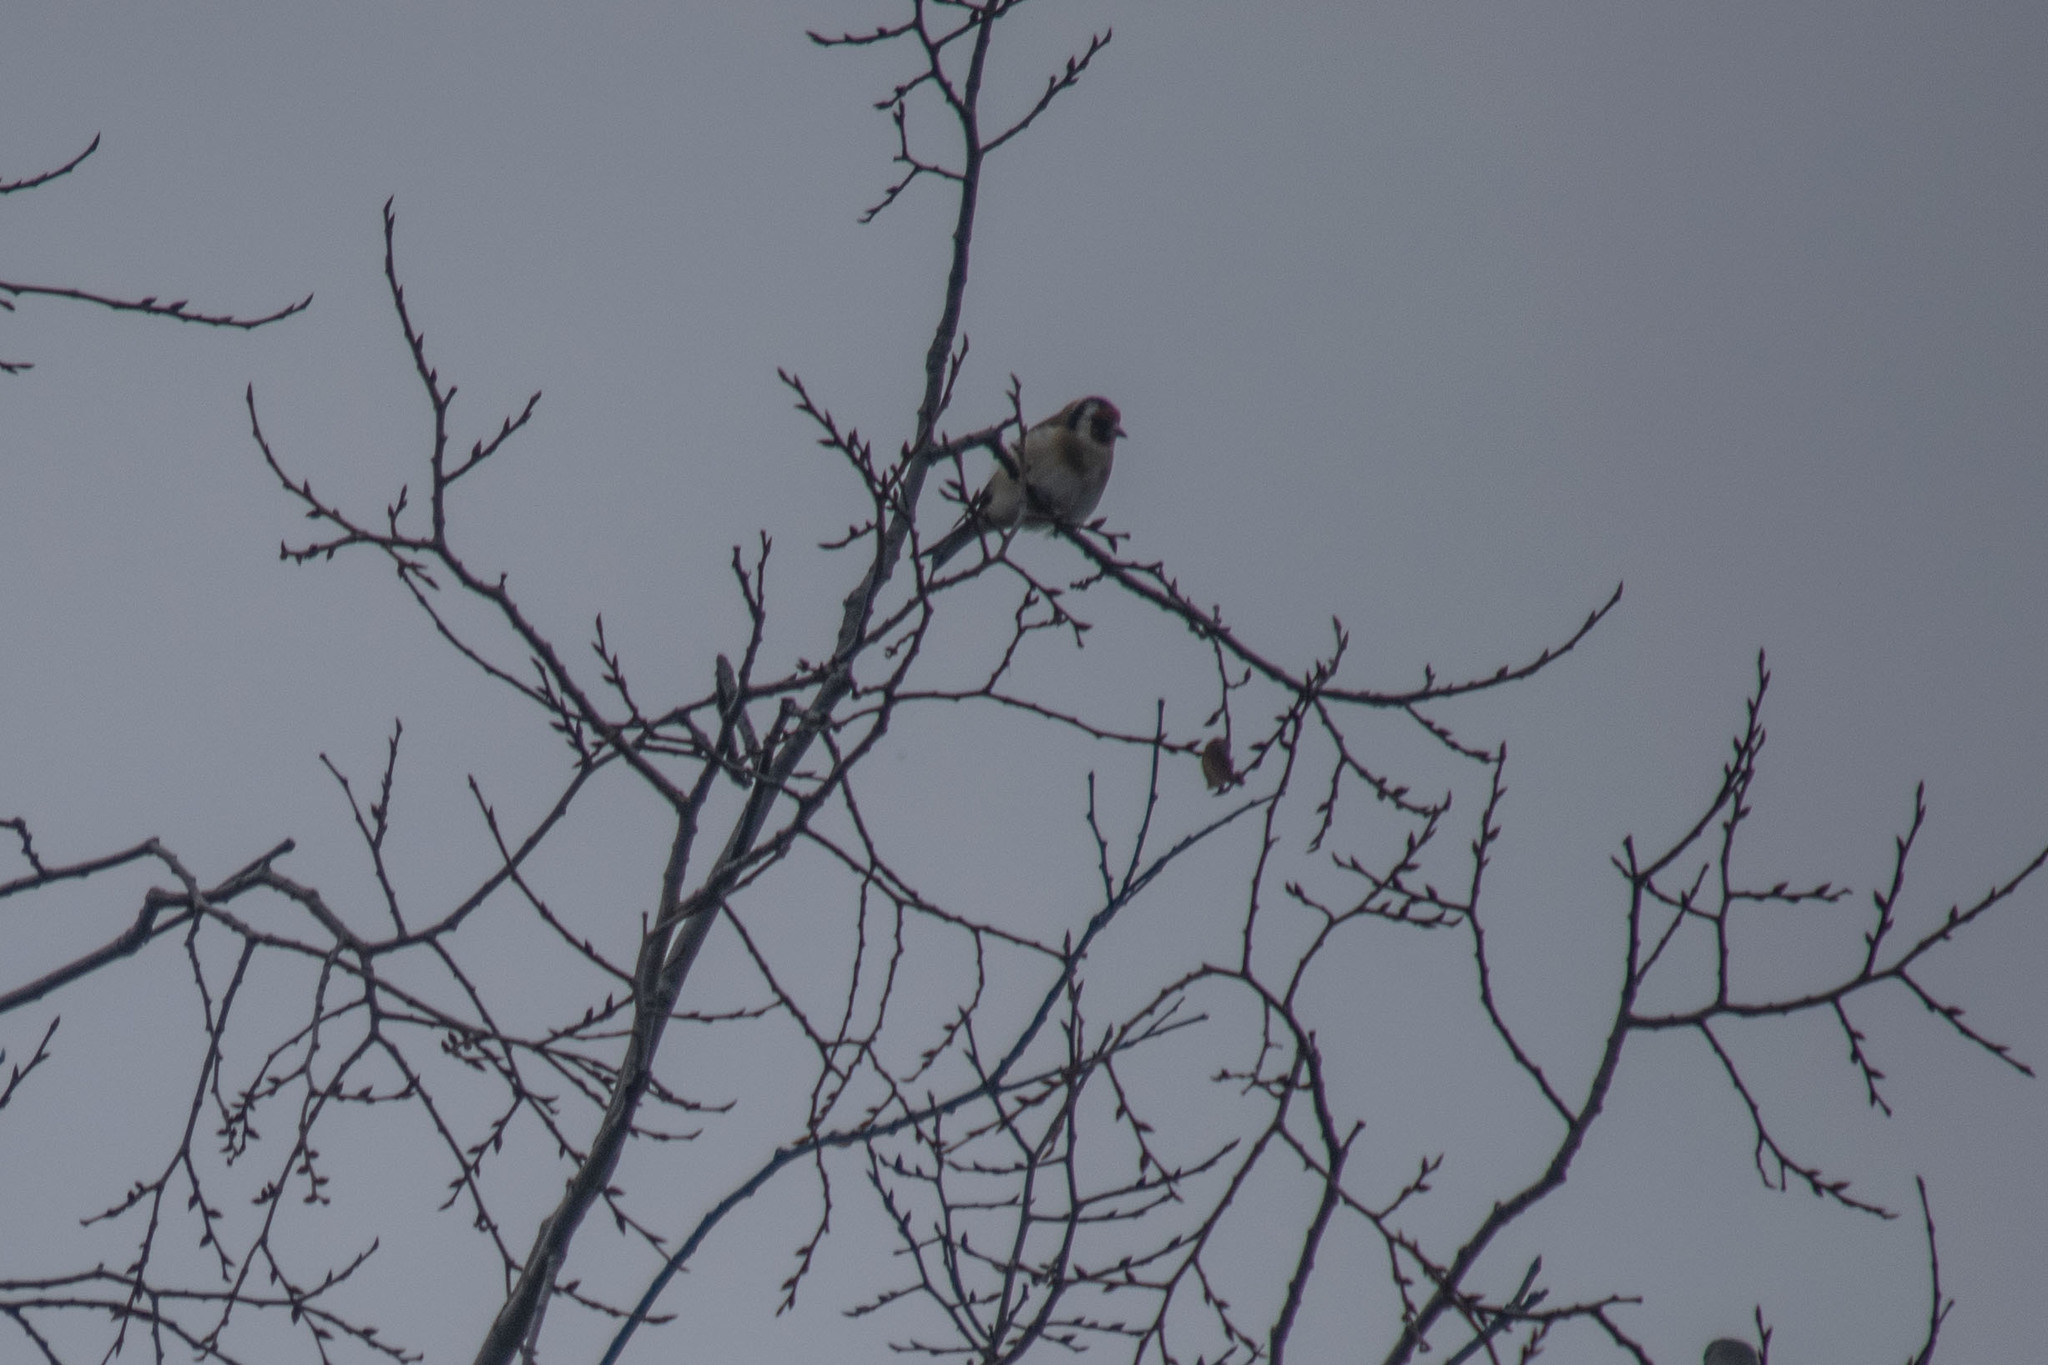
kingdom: Animalia
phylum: Chordata
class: Aves
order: Passeriformes
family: Fringillidae
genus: Carduelis
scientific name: Carduelis carduelis
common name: European goldfinch
